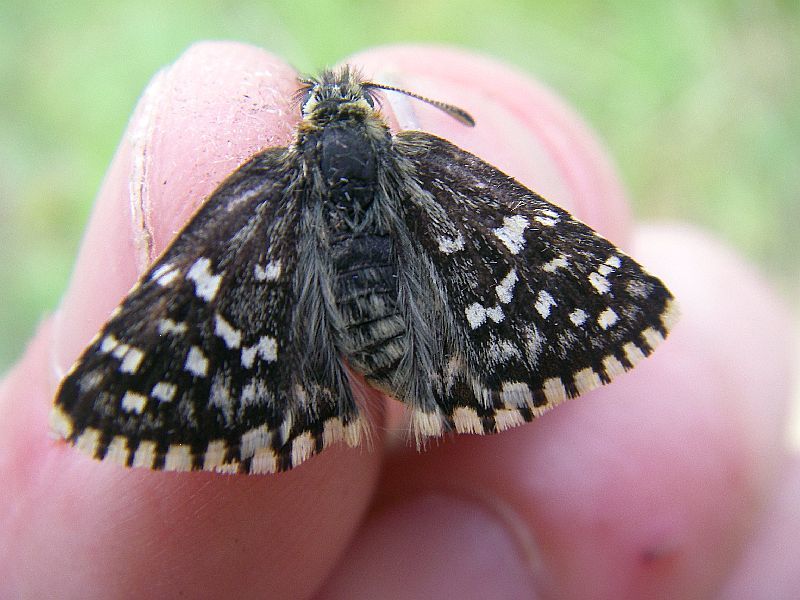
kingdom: Animalia
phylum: Arthropoda
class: Insecta
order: Lepidoptera
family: Hesperiidae
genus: Pyrgus
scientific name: Pyrgus malvoides
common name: Southern grizzled skipper
